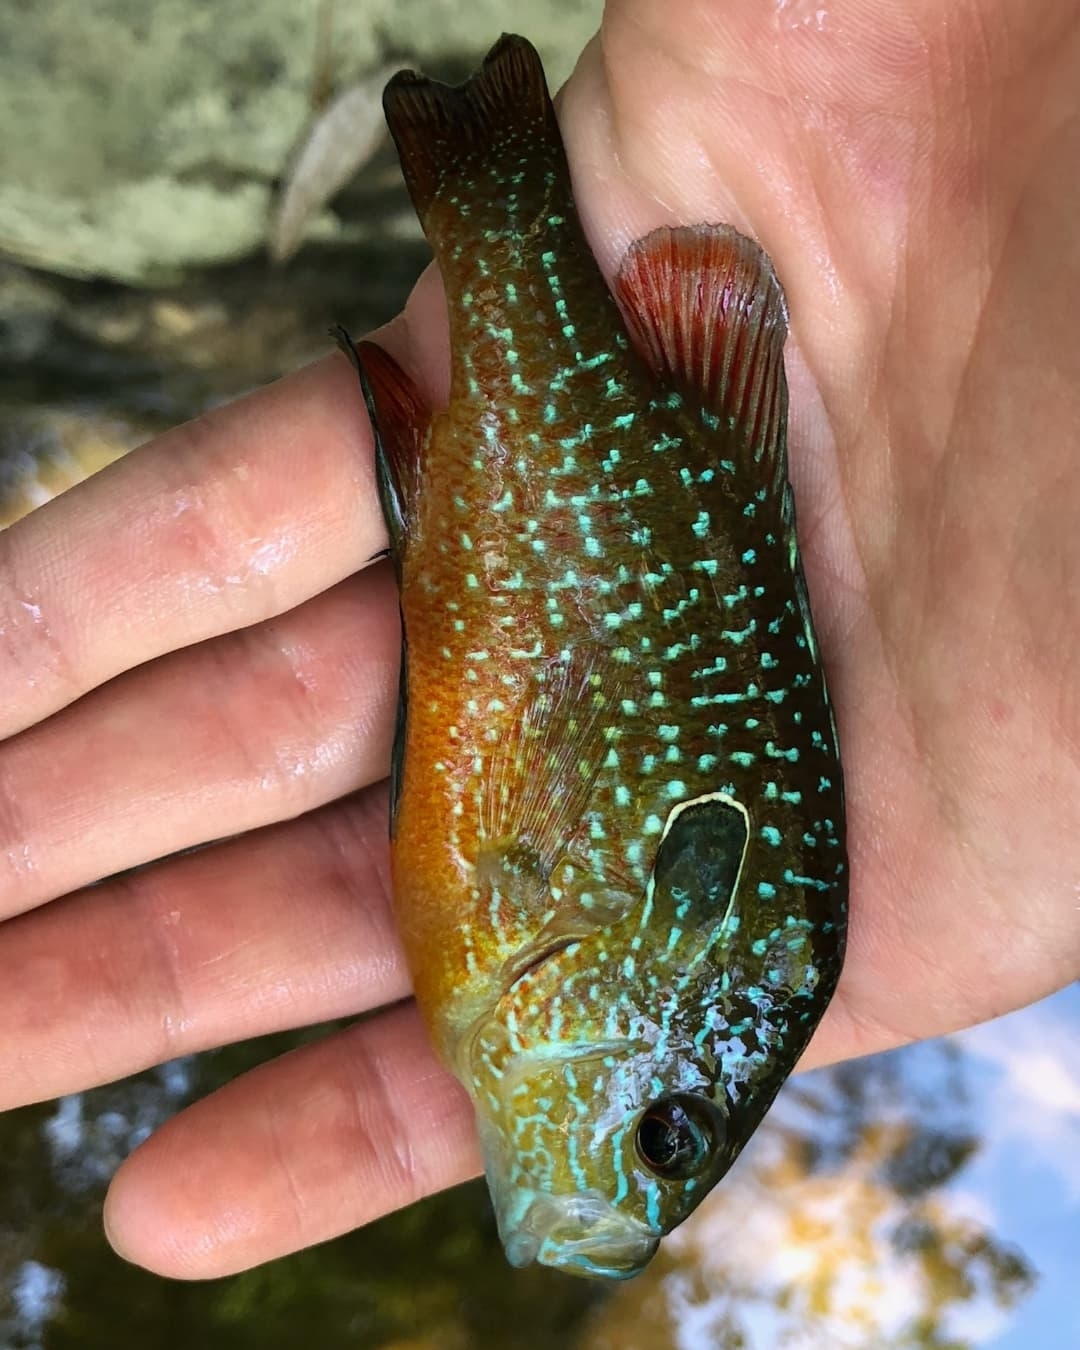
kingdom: Animalia
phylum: Chordata
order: Perciformes
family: Centrarchidae
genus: Lepomis
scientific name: Lepomis megalotis
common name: Longear sunfish
